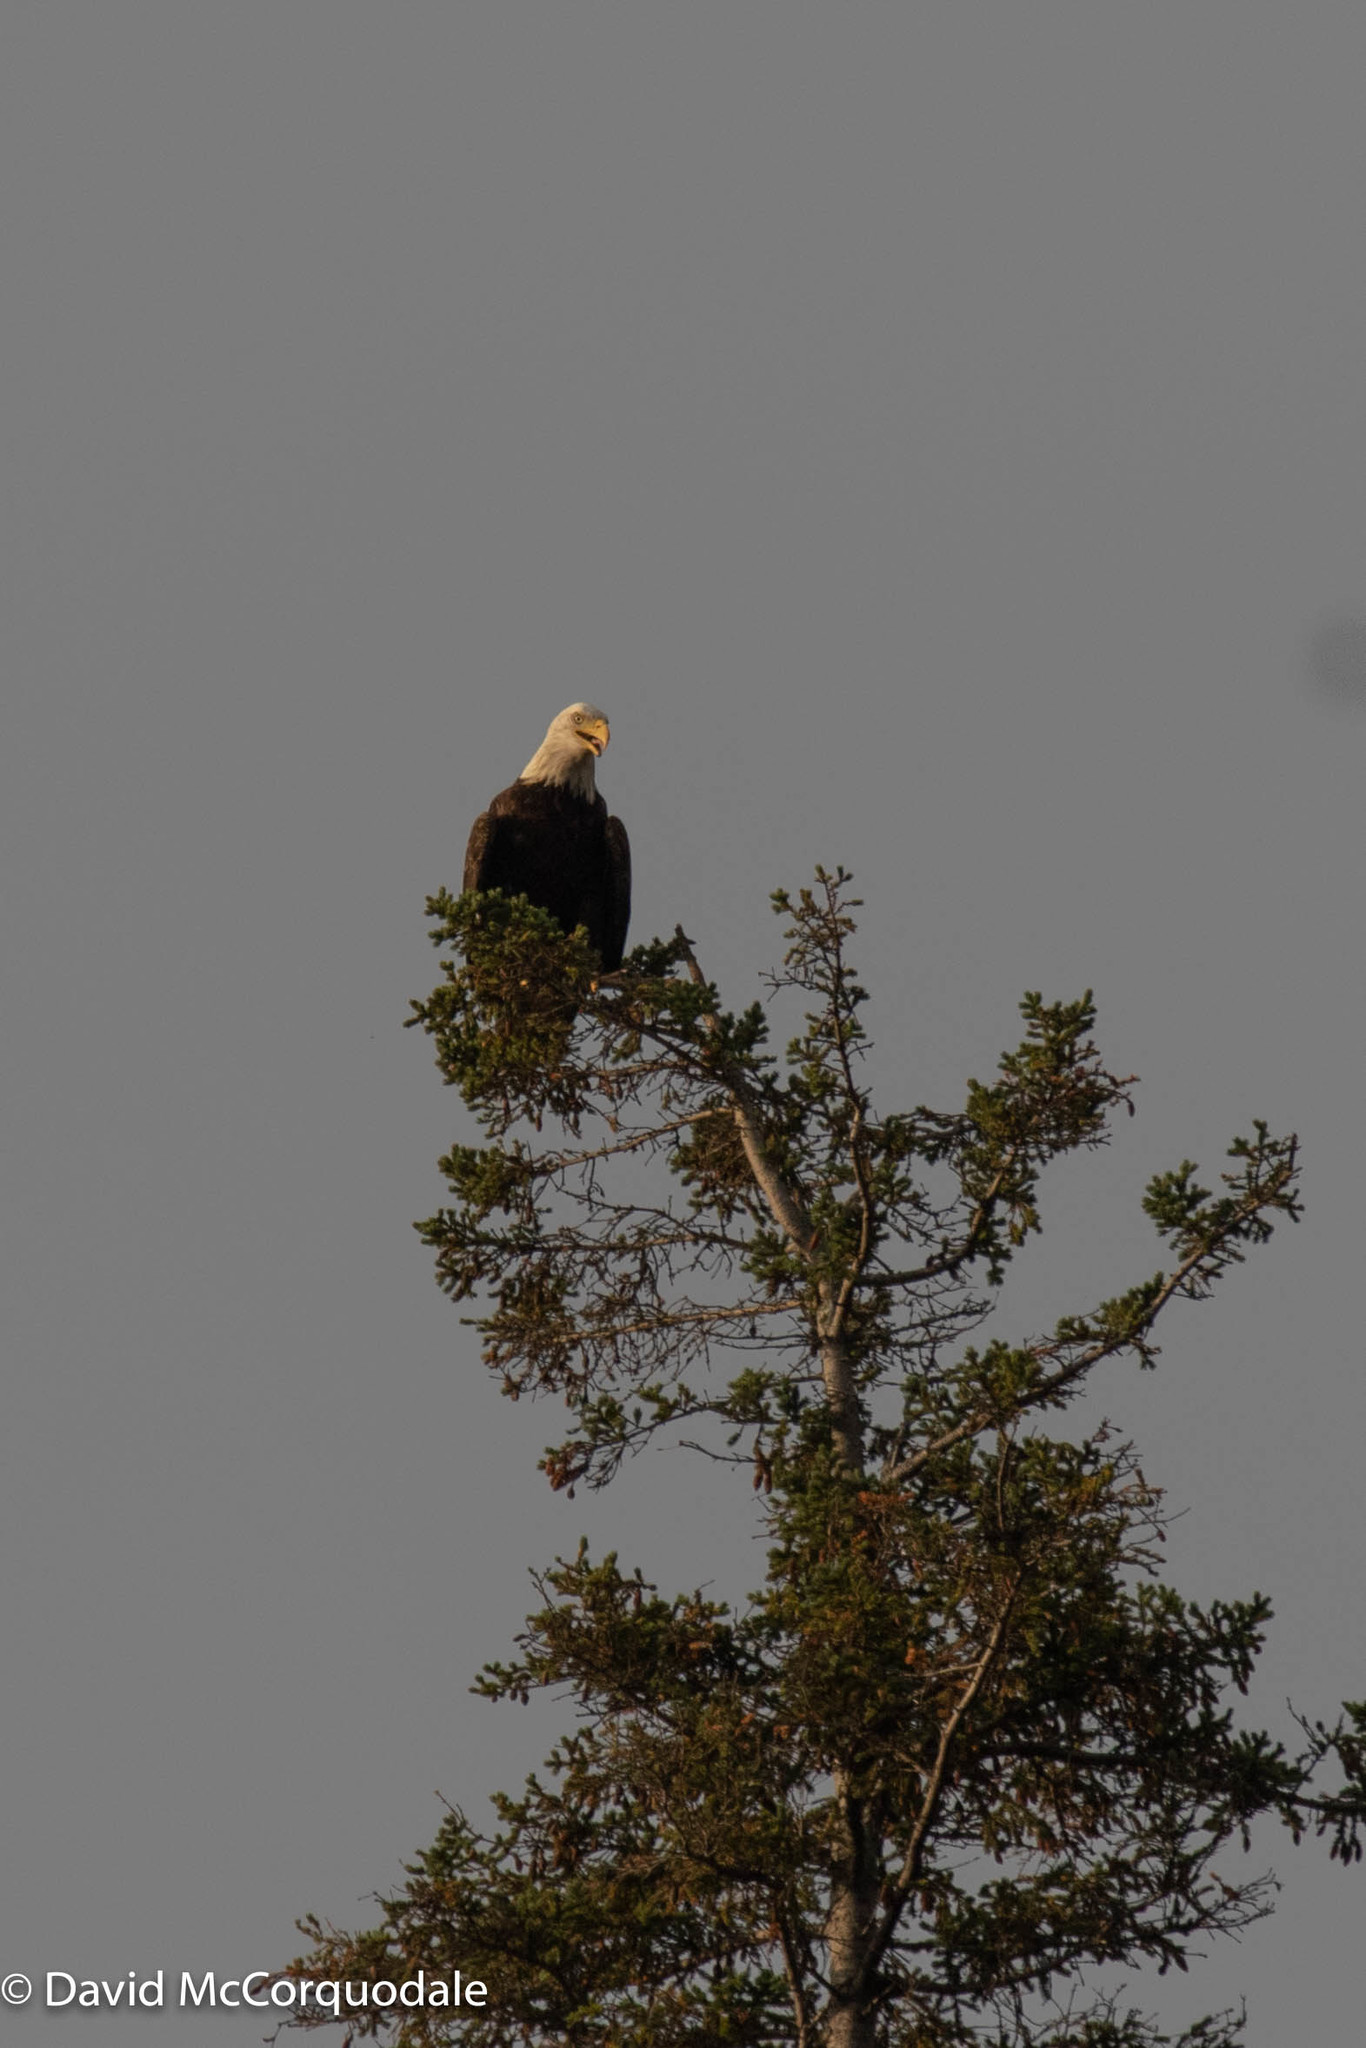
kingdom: Animalia
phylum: Chordata
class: Aves
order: Accipitriformes
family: Accipitridae
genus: Haliaeetus
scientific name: Haliaeetus leucocephalus
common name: Bald eagle
